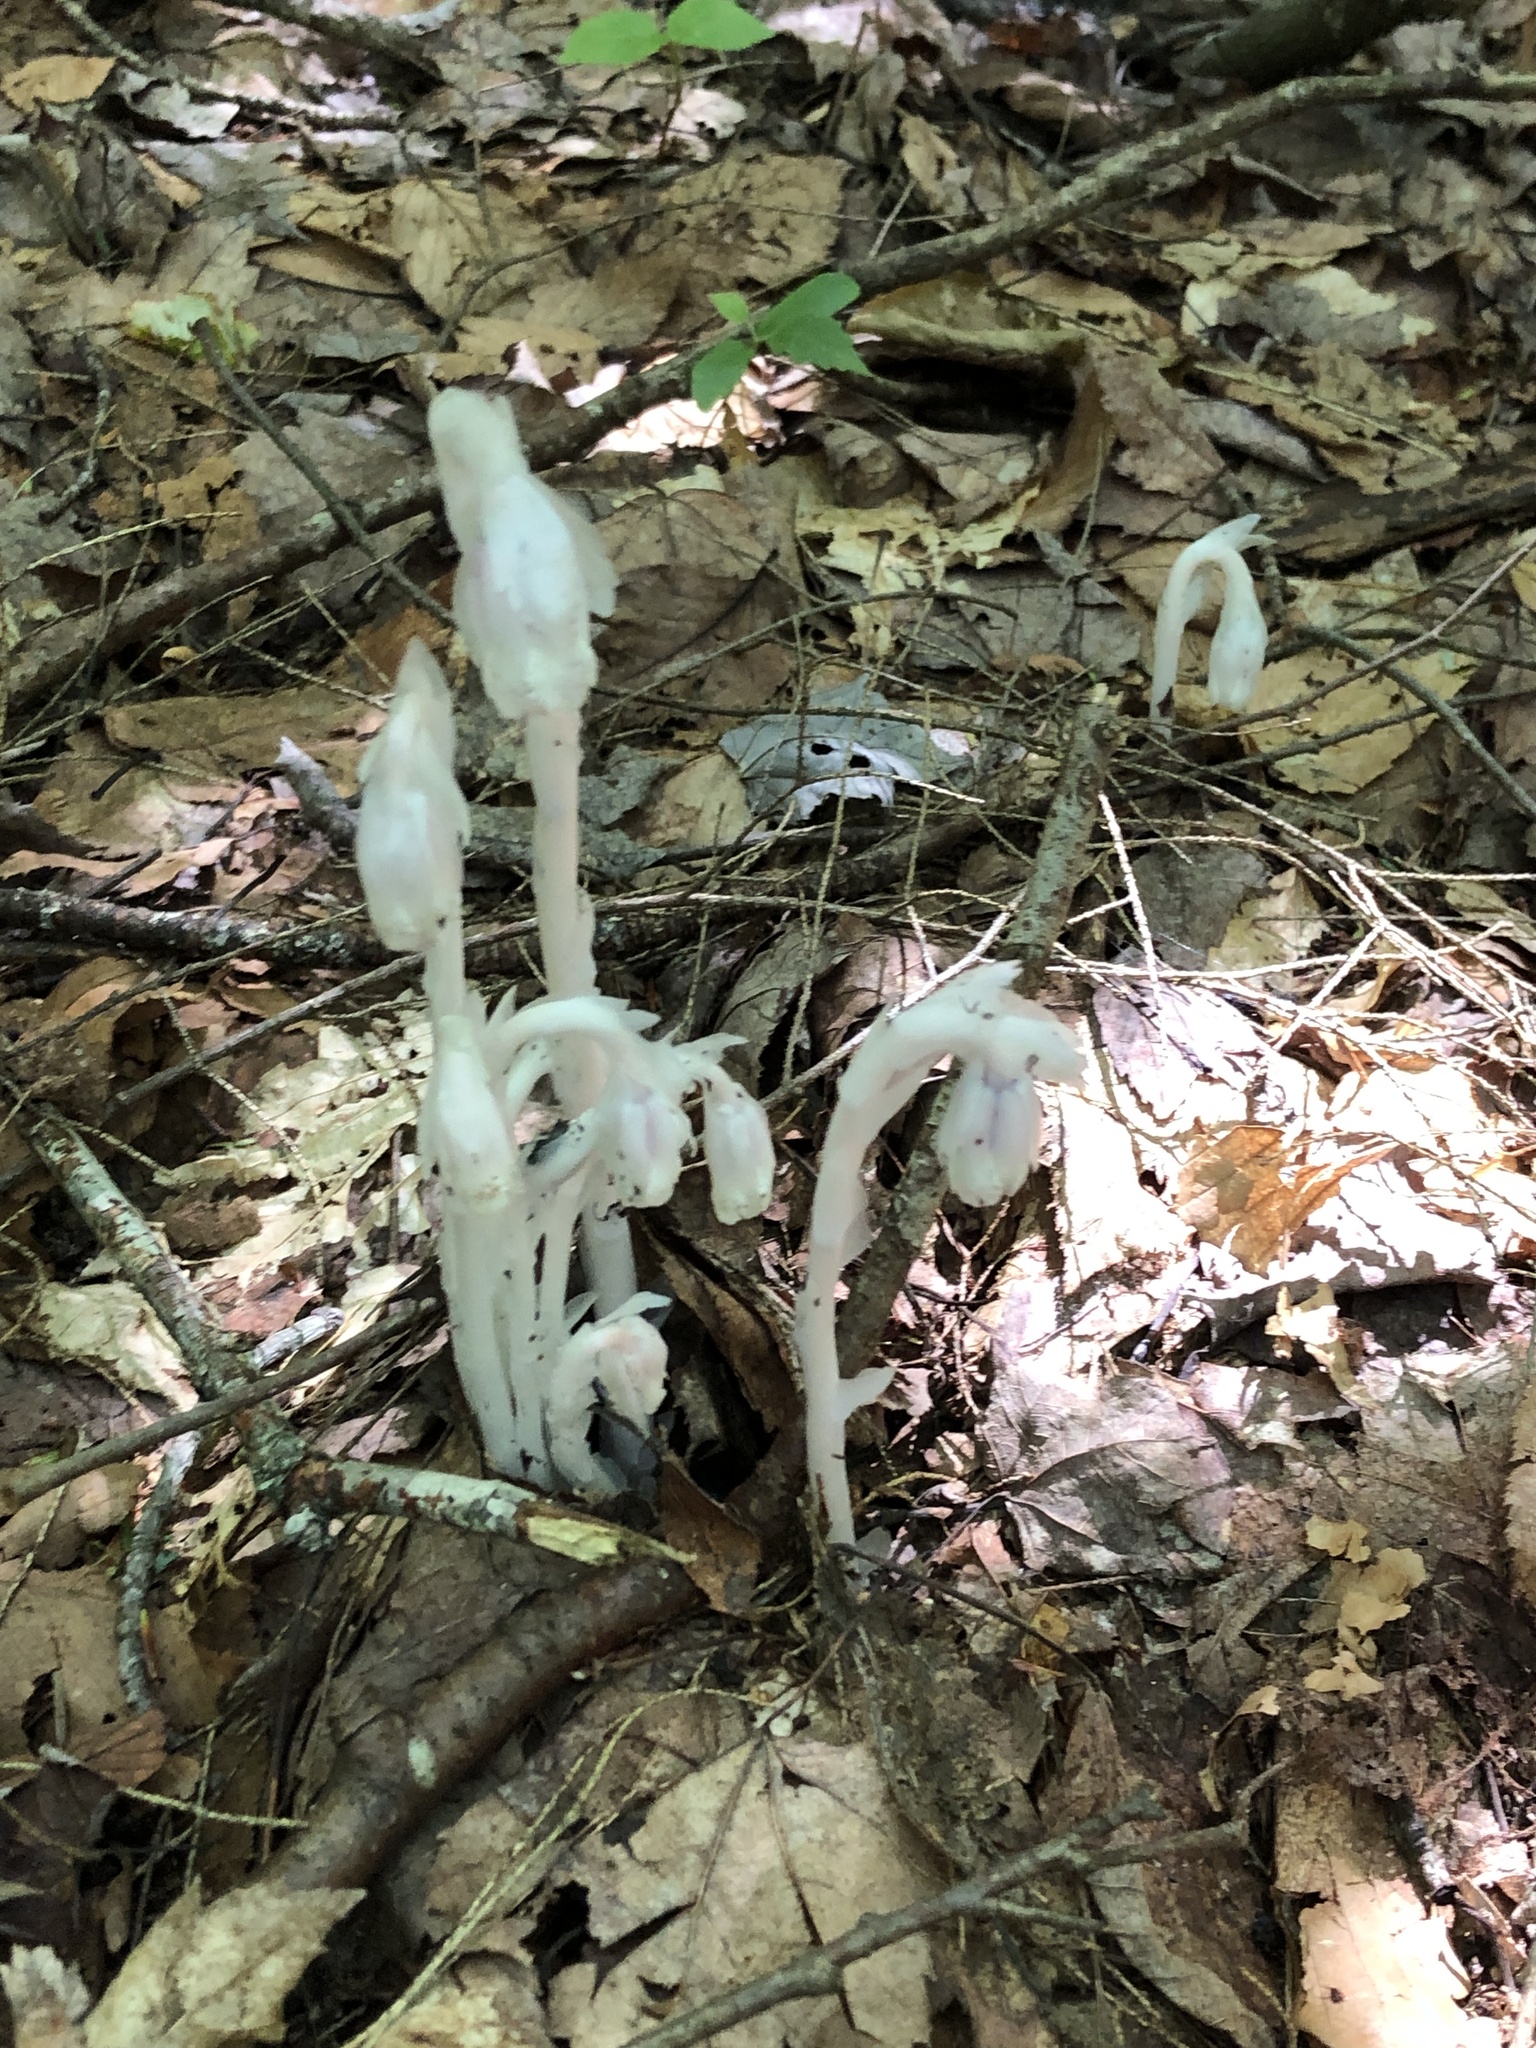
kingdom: Plantae
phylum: Tracheophyta
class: Magnoliopsida
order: Ericales
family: Ericaceae
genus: Monotropa
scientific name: Monotropa uniflora
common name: Convulsion root
